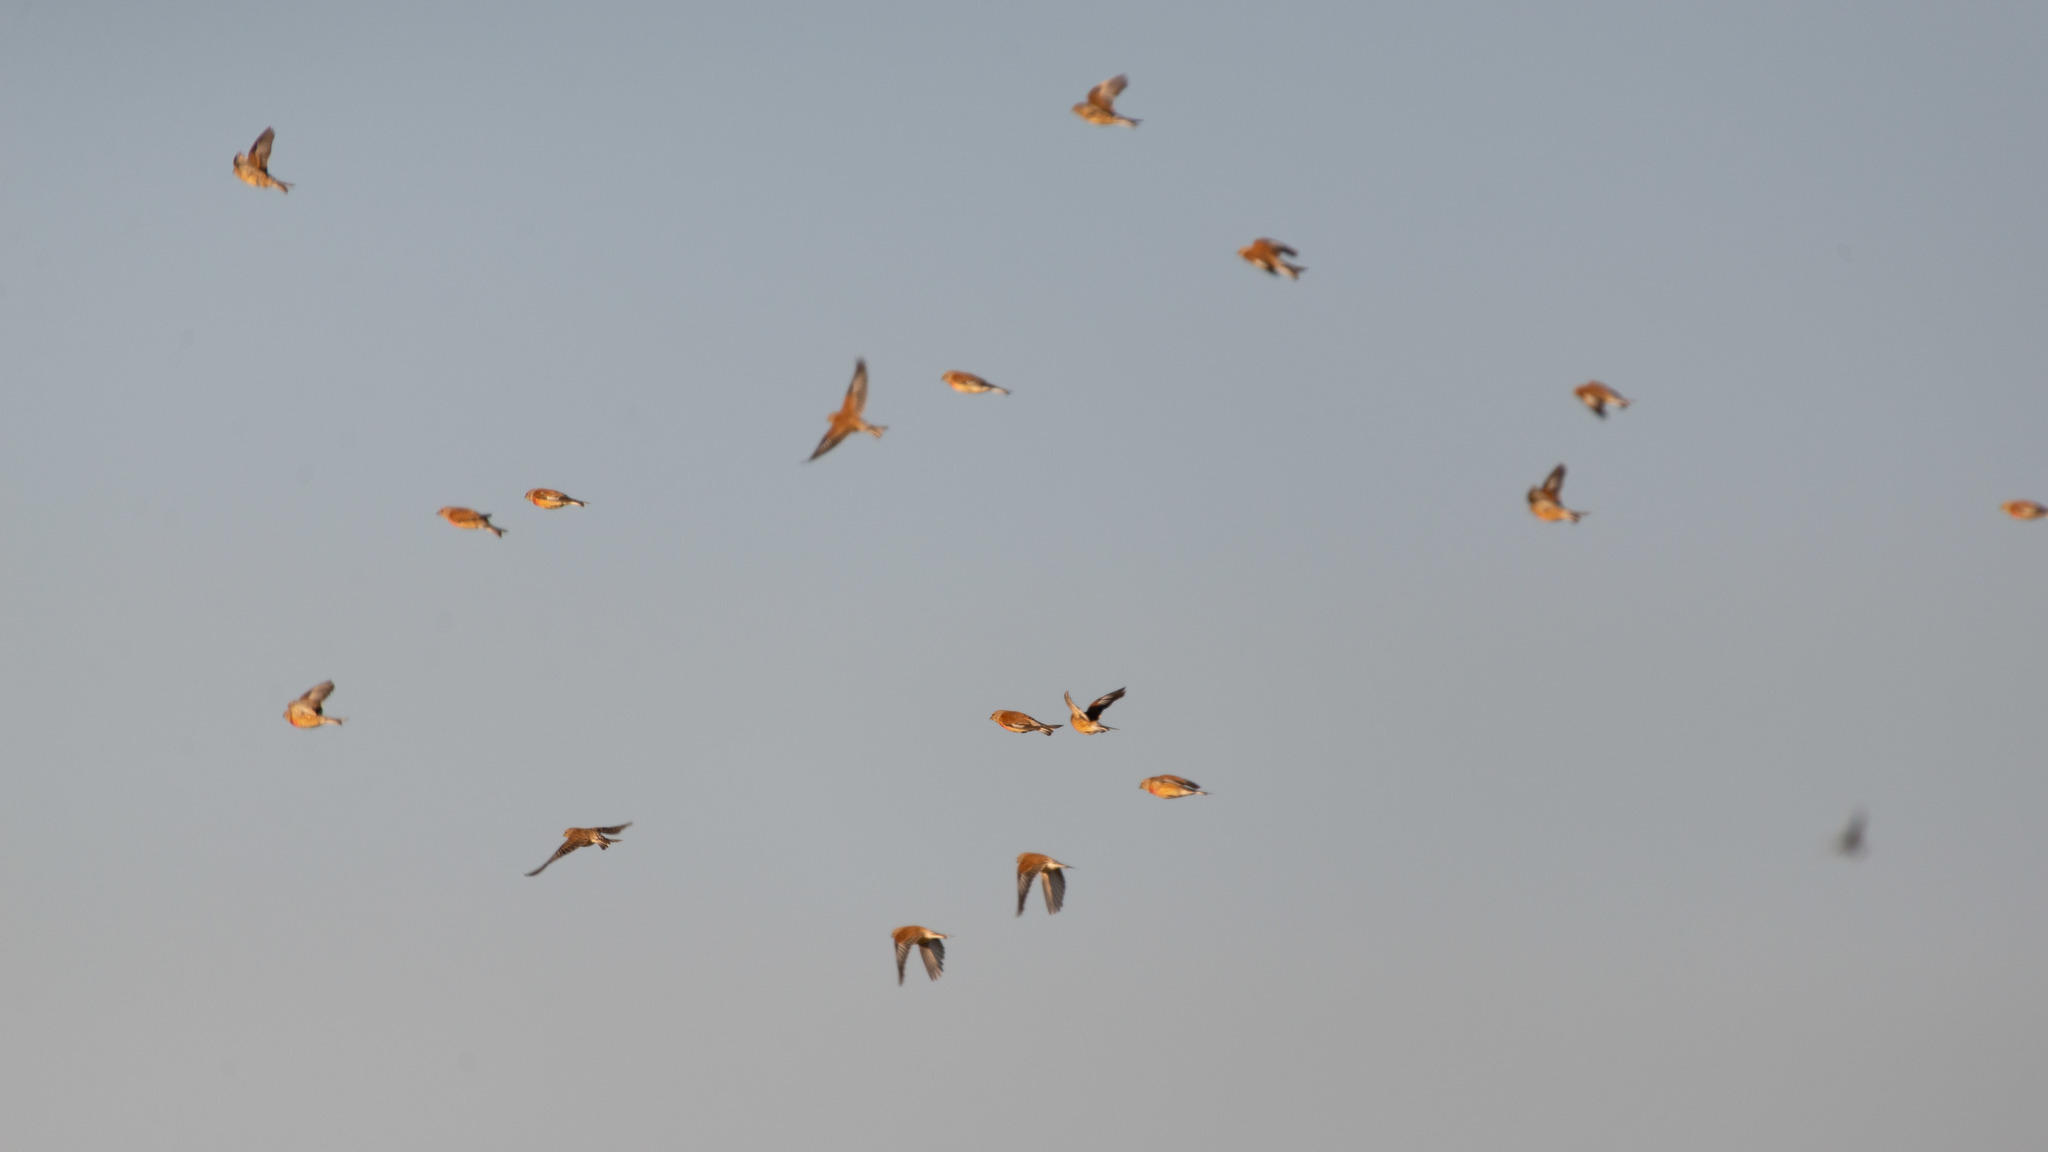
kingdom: Animalia
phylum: Chordata
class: Aves
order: Passeriformes
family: Fringillidae
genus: Linaria
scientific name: Linaria cannabina
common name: Common linnet
